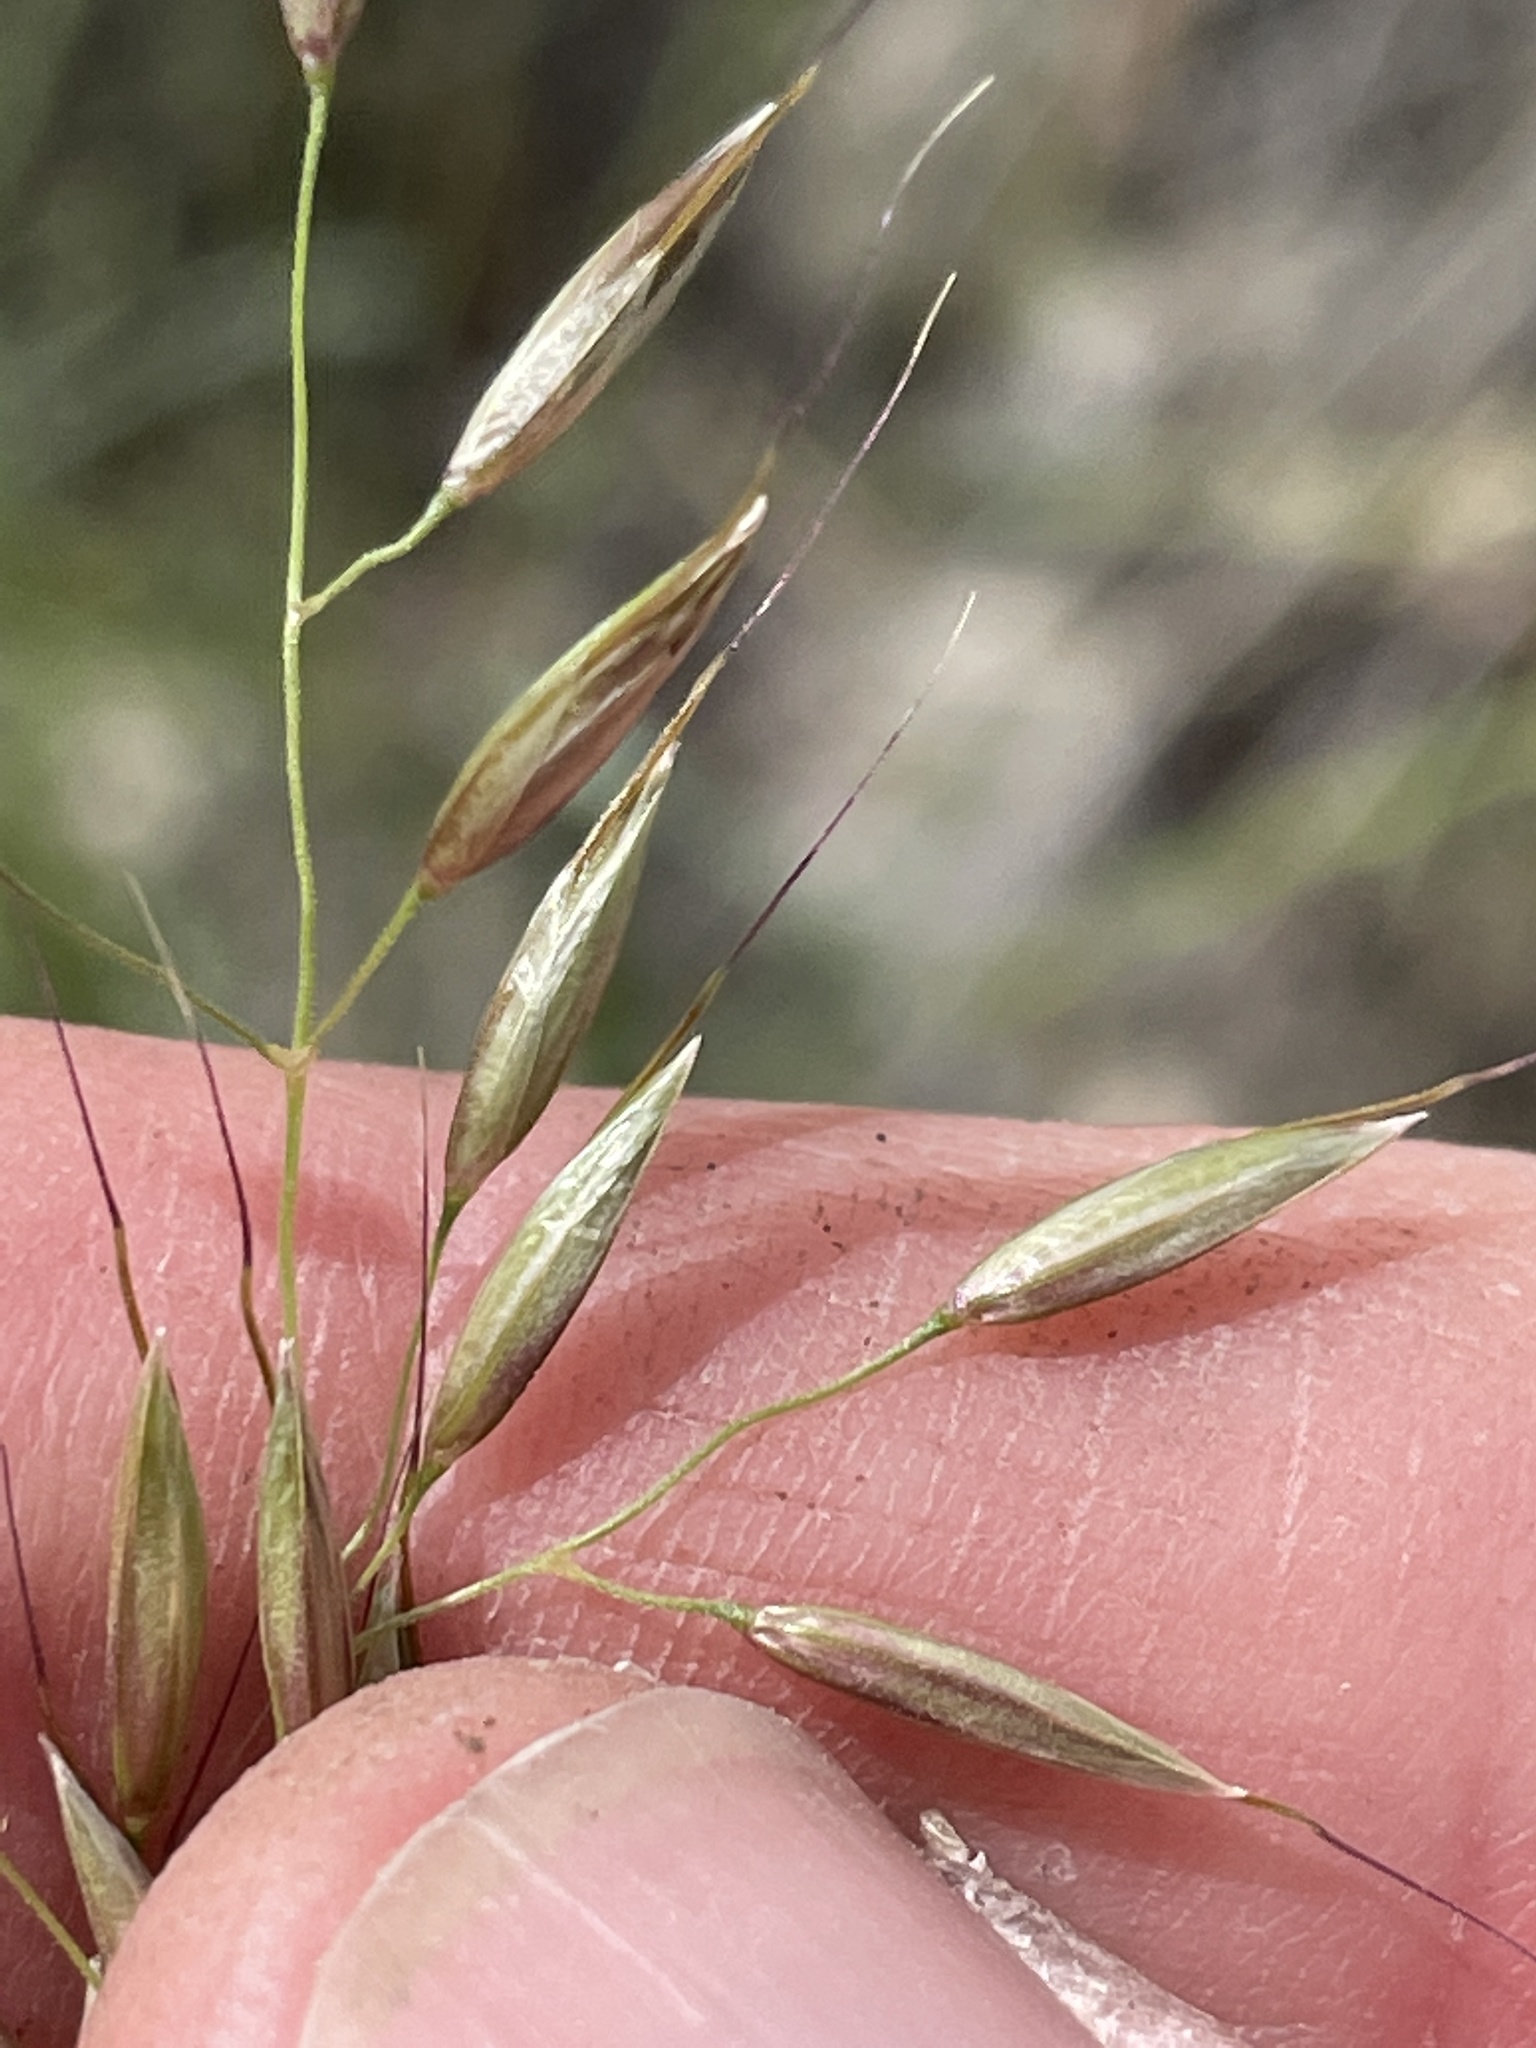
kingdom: Plantae
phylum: Tracheophyta
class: Liliopsida
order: Poales
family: Poaceae
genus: Arrhenatherum
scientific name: Arrhenatherum elatius
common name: Tall oatgrass
